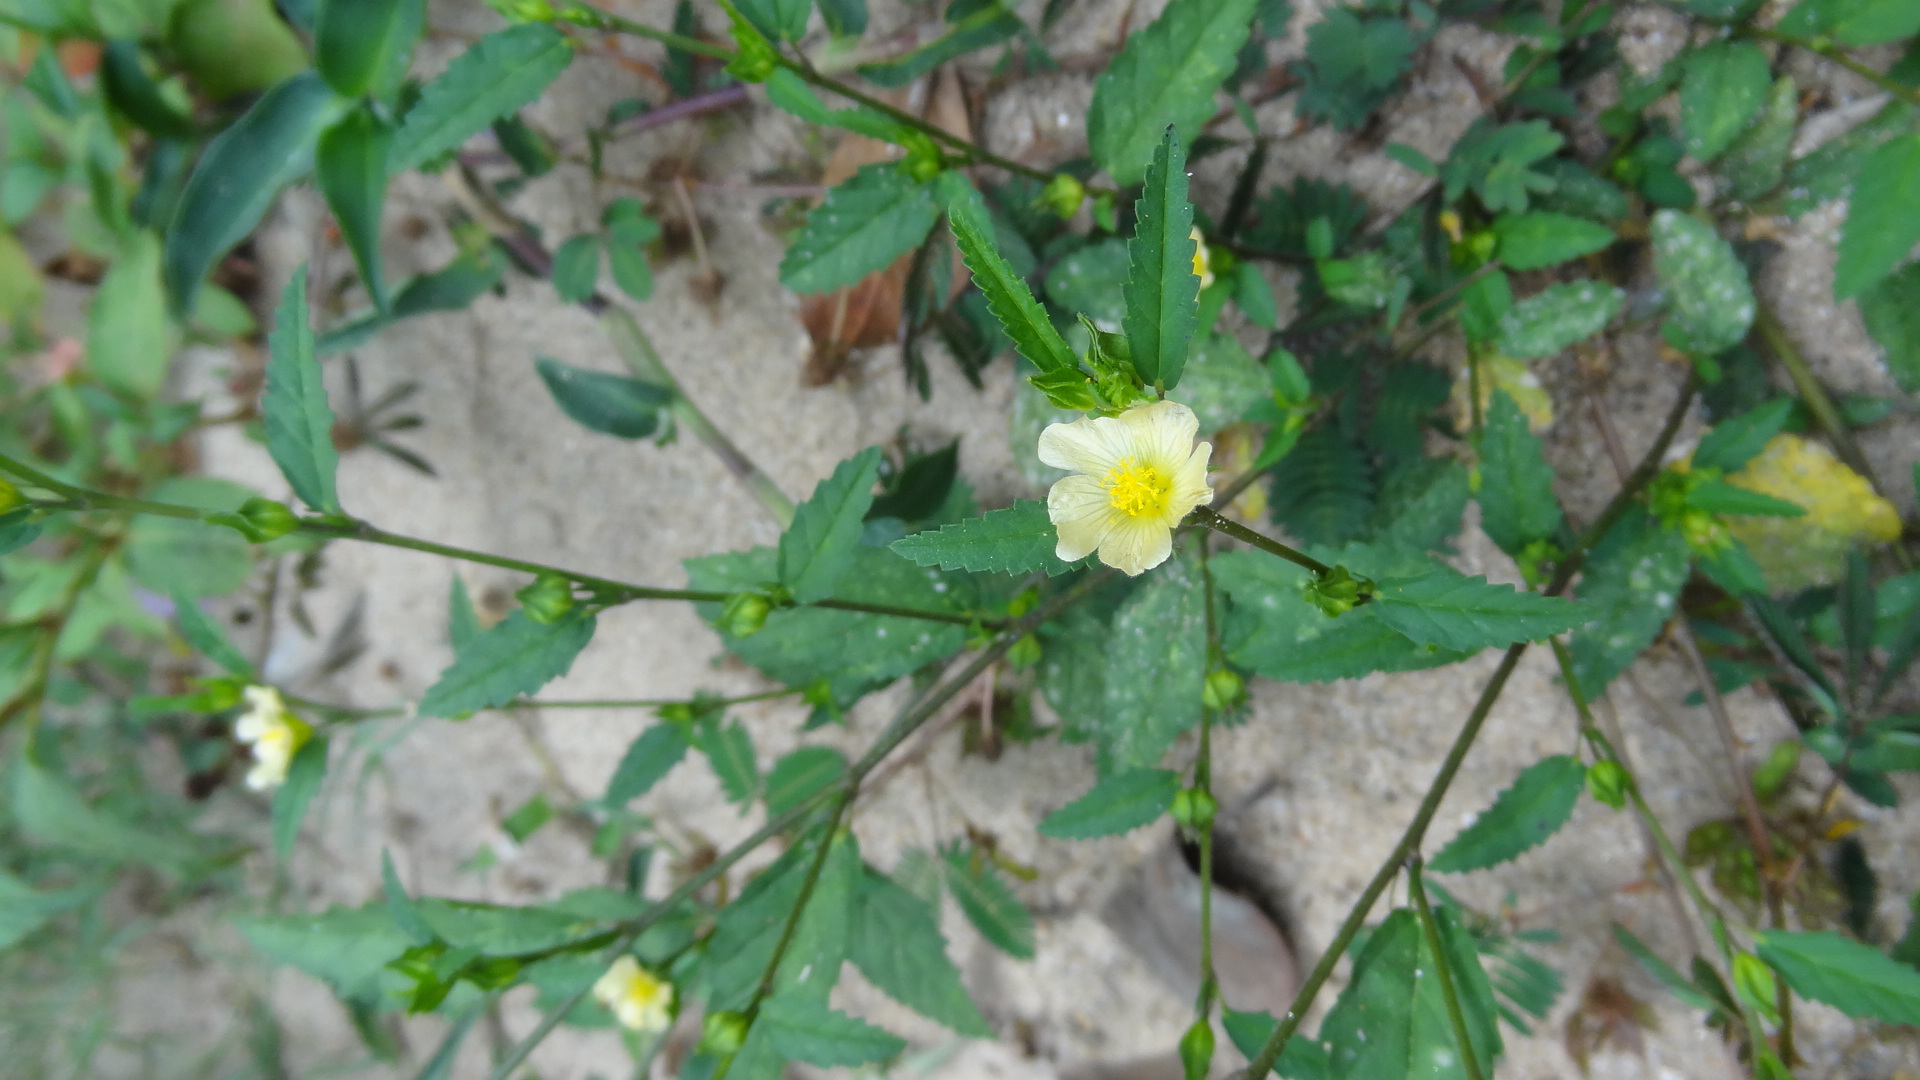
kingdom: Plantae
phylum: Tracheophyta
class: Magnoliopsida
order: Malvales
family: Malvaceae
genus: Sida
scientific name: Sida acuta
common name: Common wireweed
